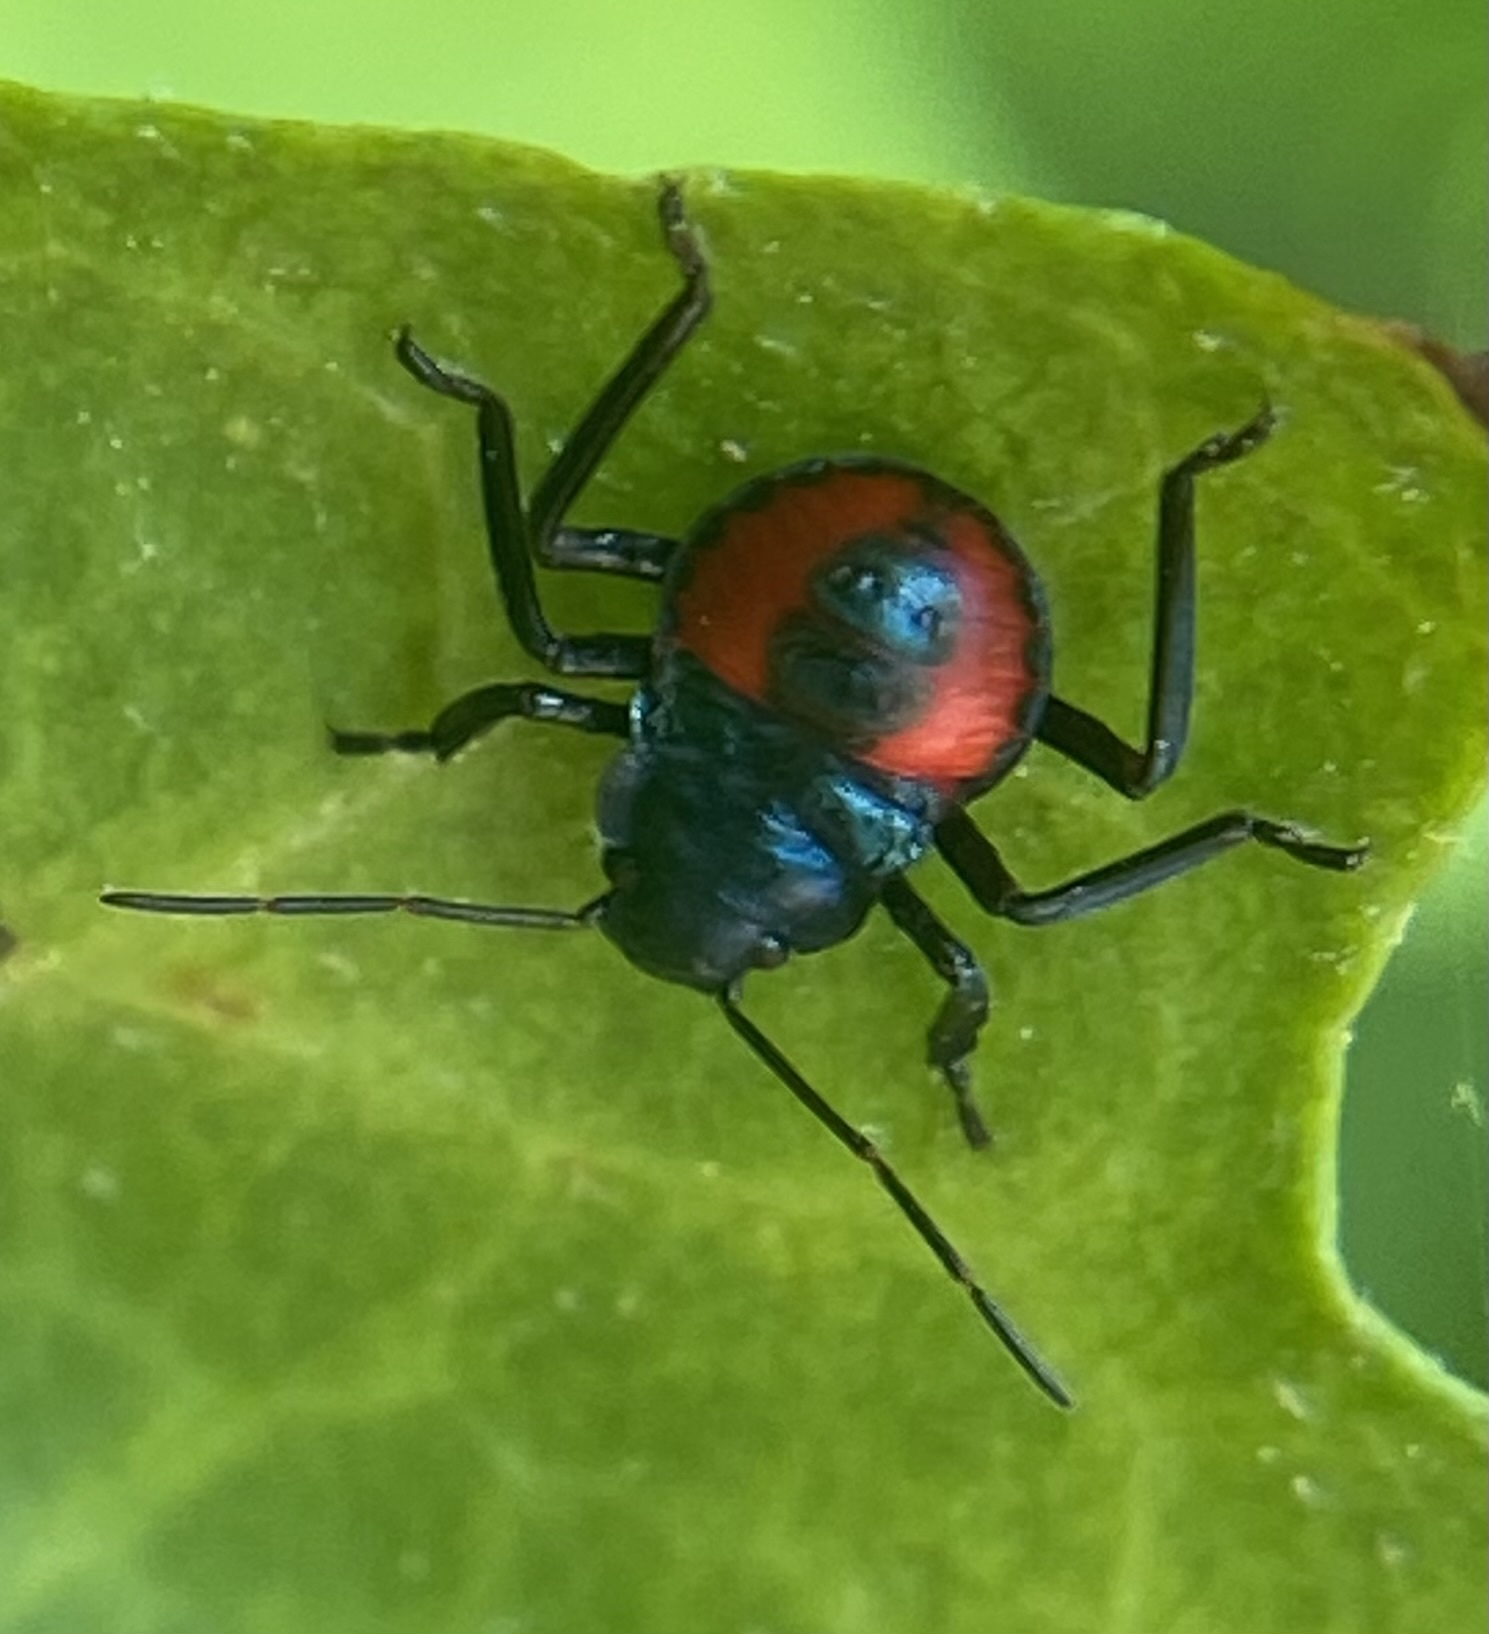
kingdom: Animalia
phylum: Arthropoda
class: Insecta
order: Hemiptera
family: Pentatomidae
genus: Euthyrhynchus
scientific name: Euthyrhynchus floridanus
